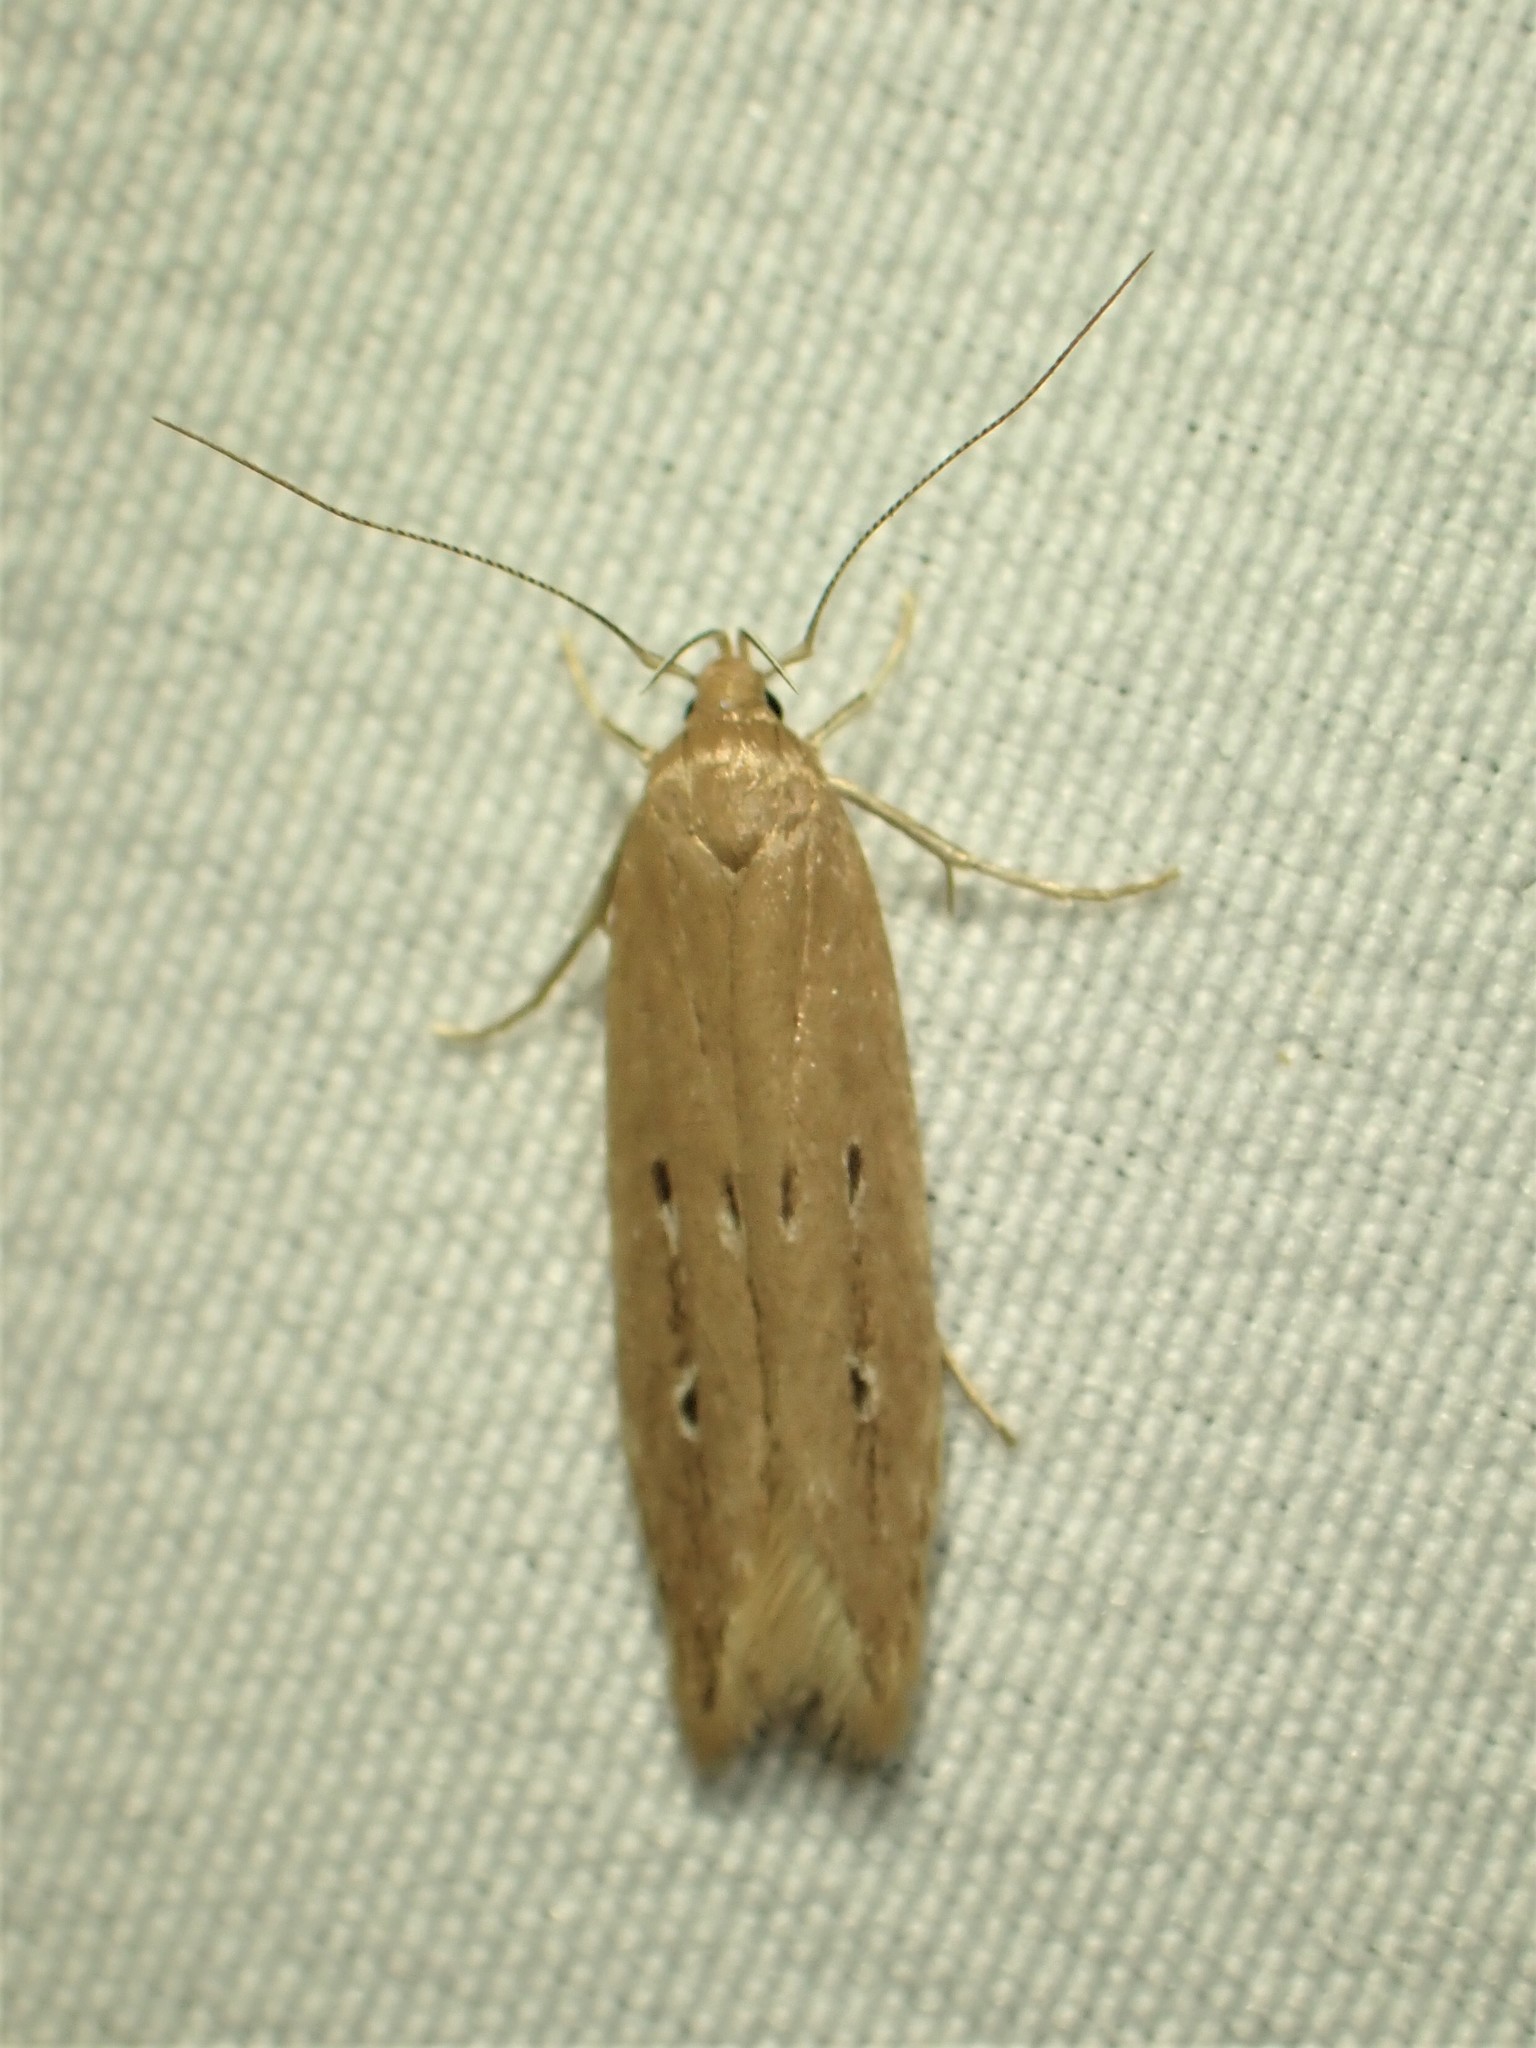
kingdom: Animalia
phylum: Arthropoda
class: Insecta
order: Lepidoptera
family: Cosmopterigidae
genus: Limnaecia
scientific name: Limnaecia phragmitella
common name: Bulrush cosmet
